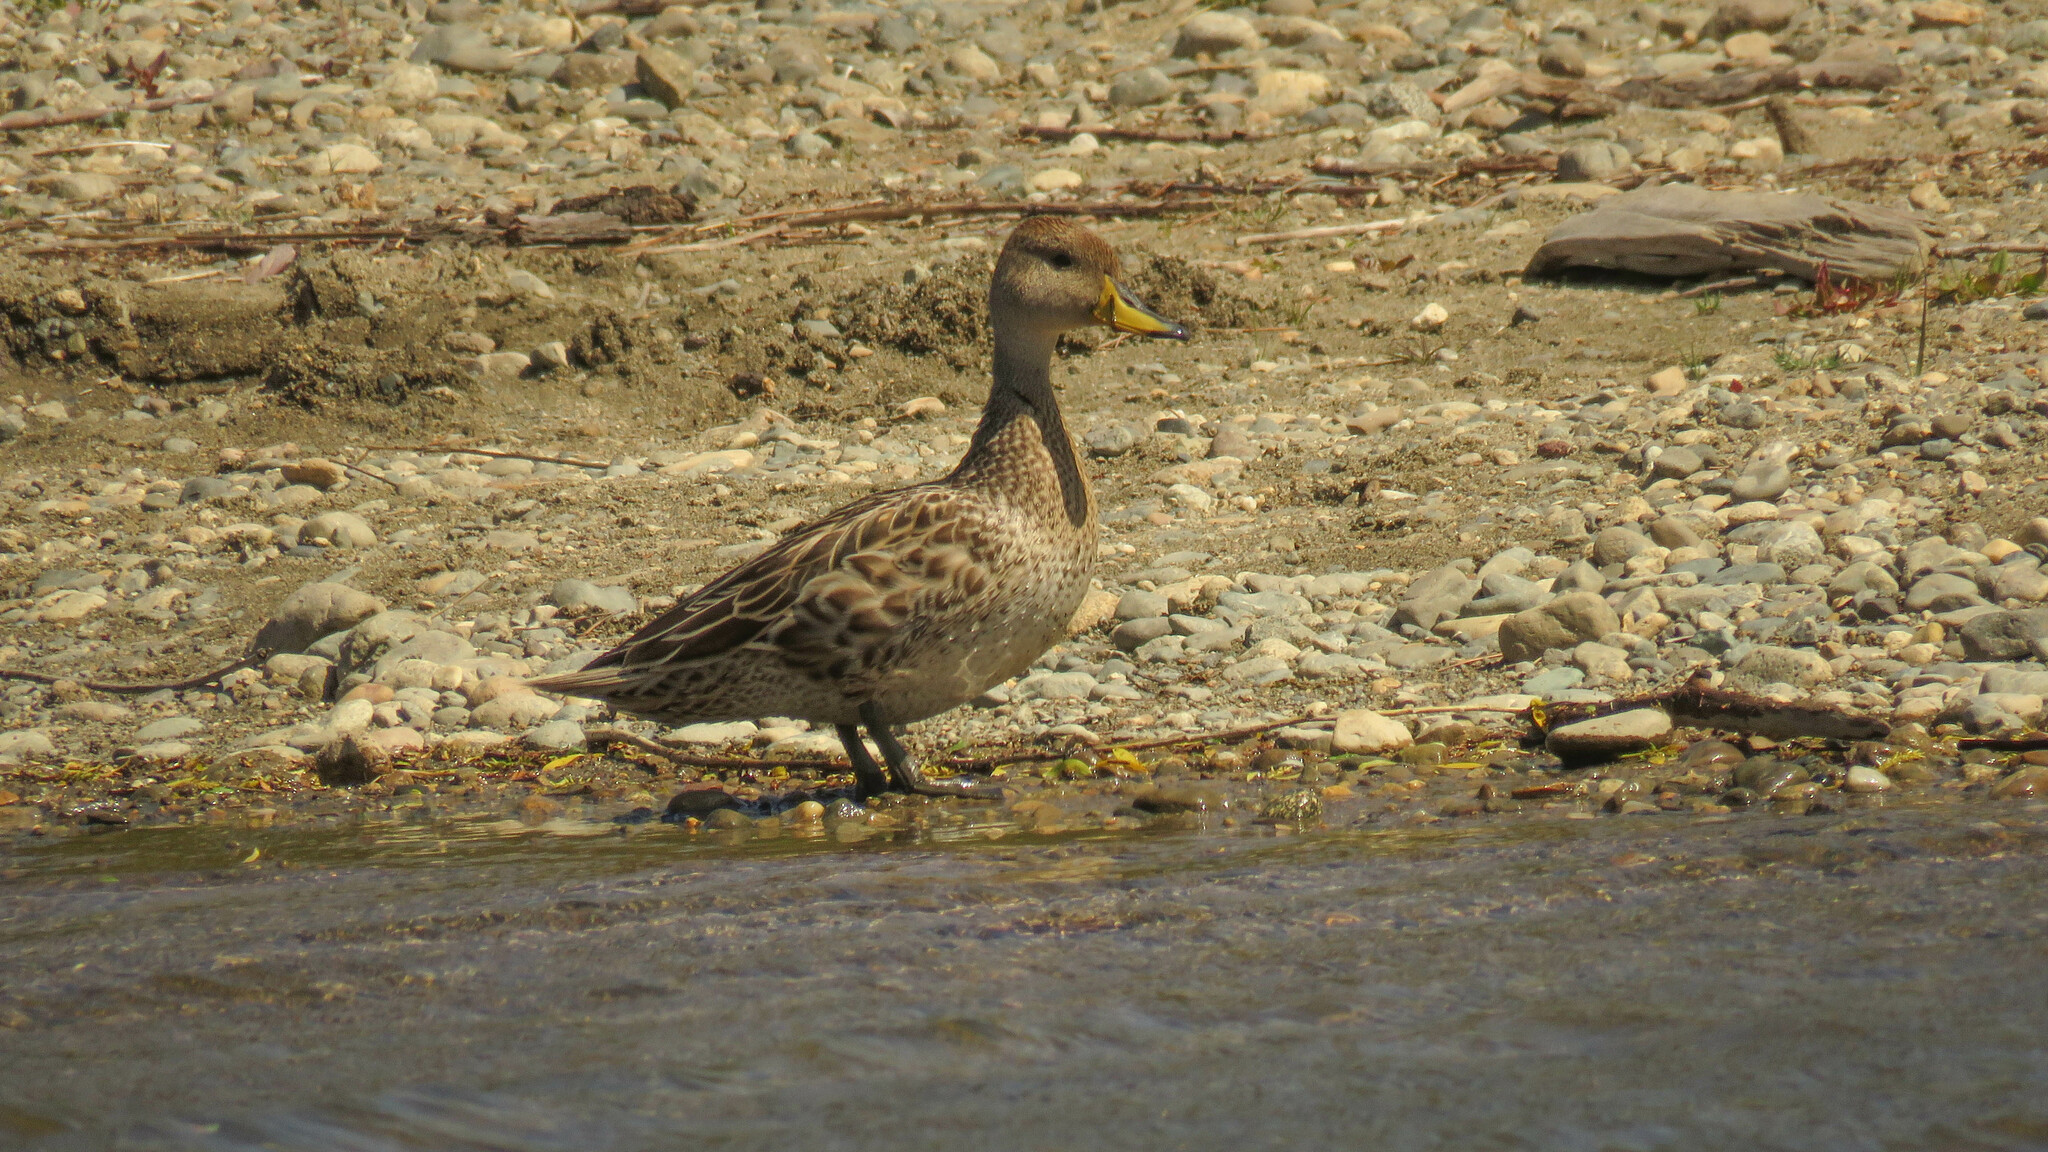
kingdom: Animalia
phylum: Chordata
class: Aves
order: Anseriformes
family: Anatidae
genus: Anas
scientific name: Anas georgica
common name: Yellow-billed pintail
